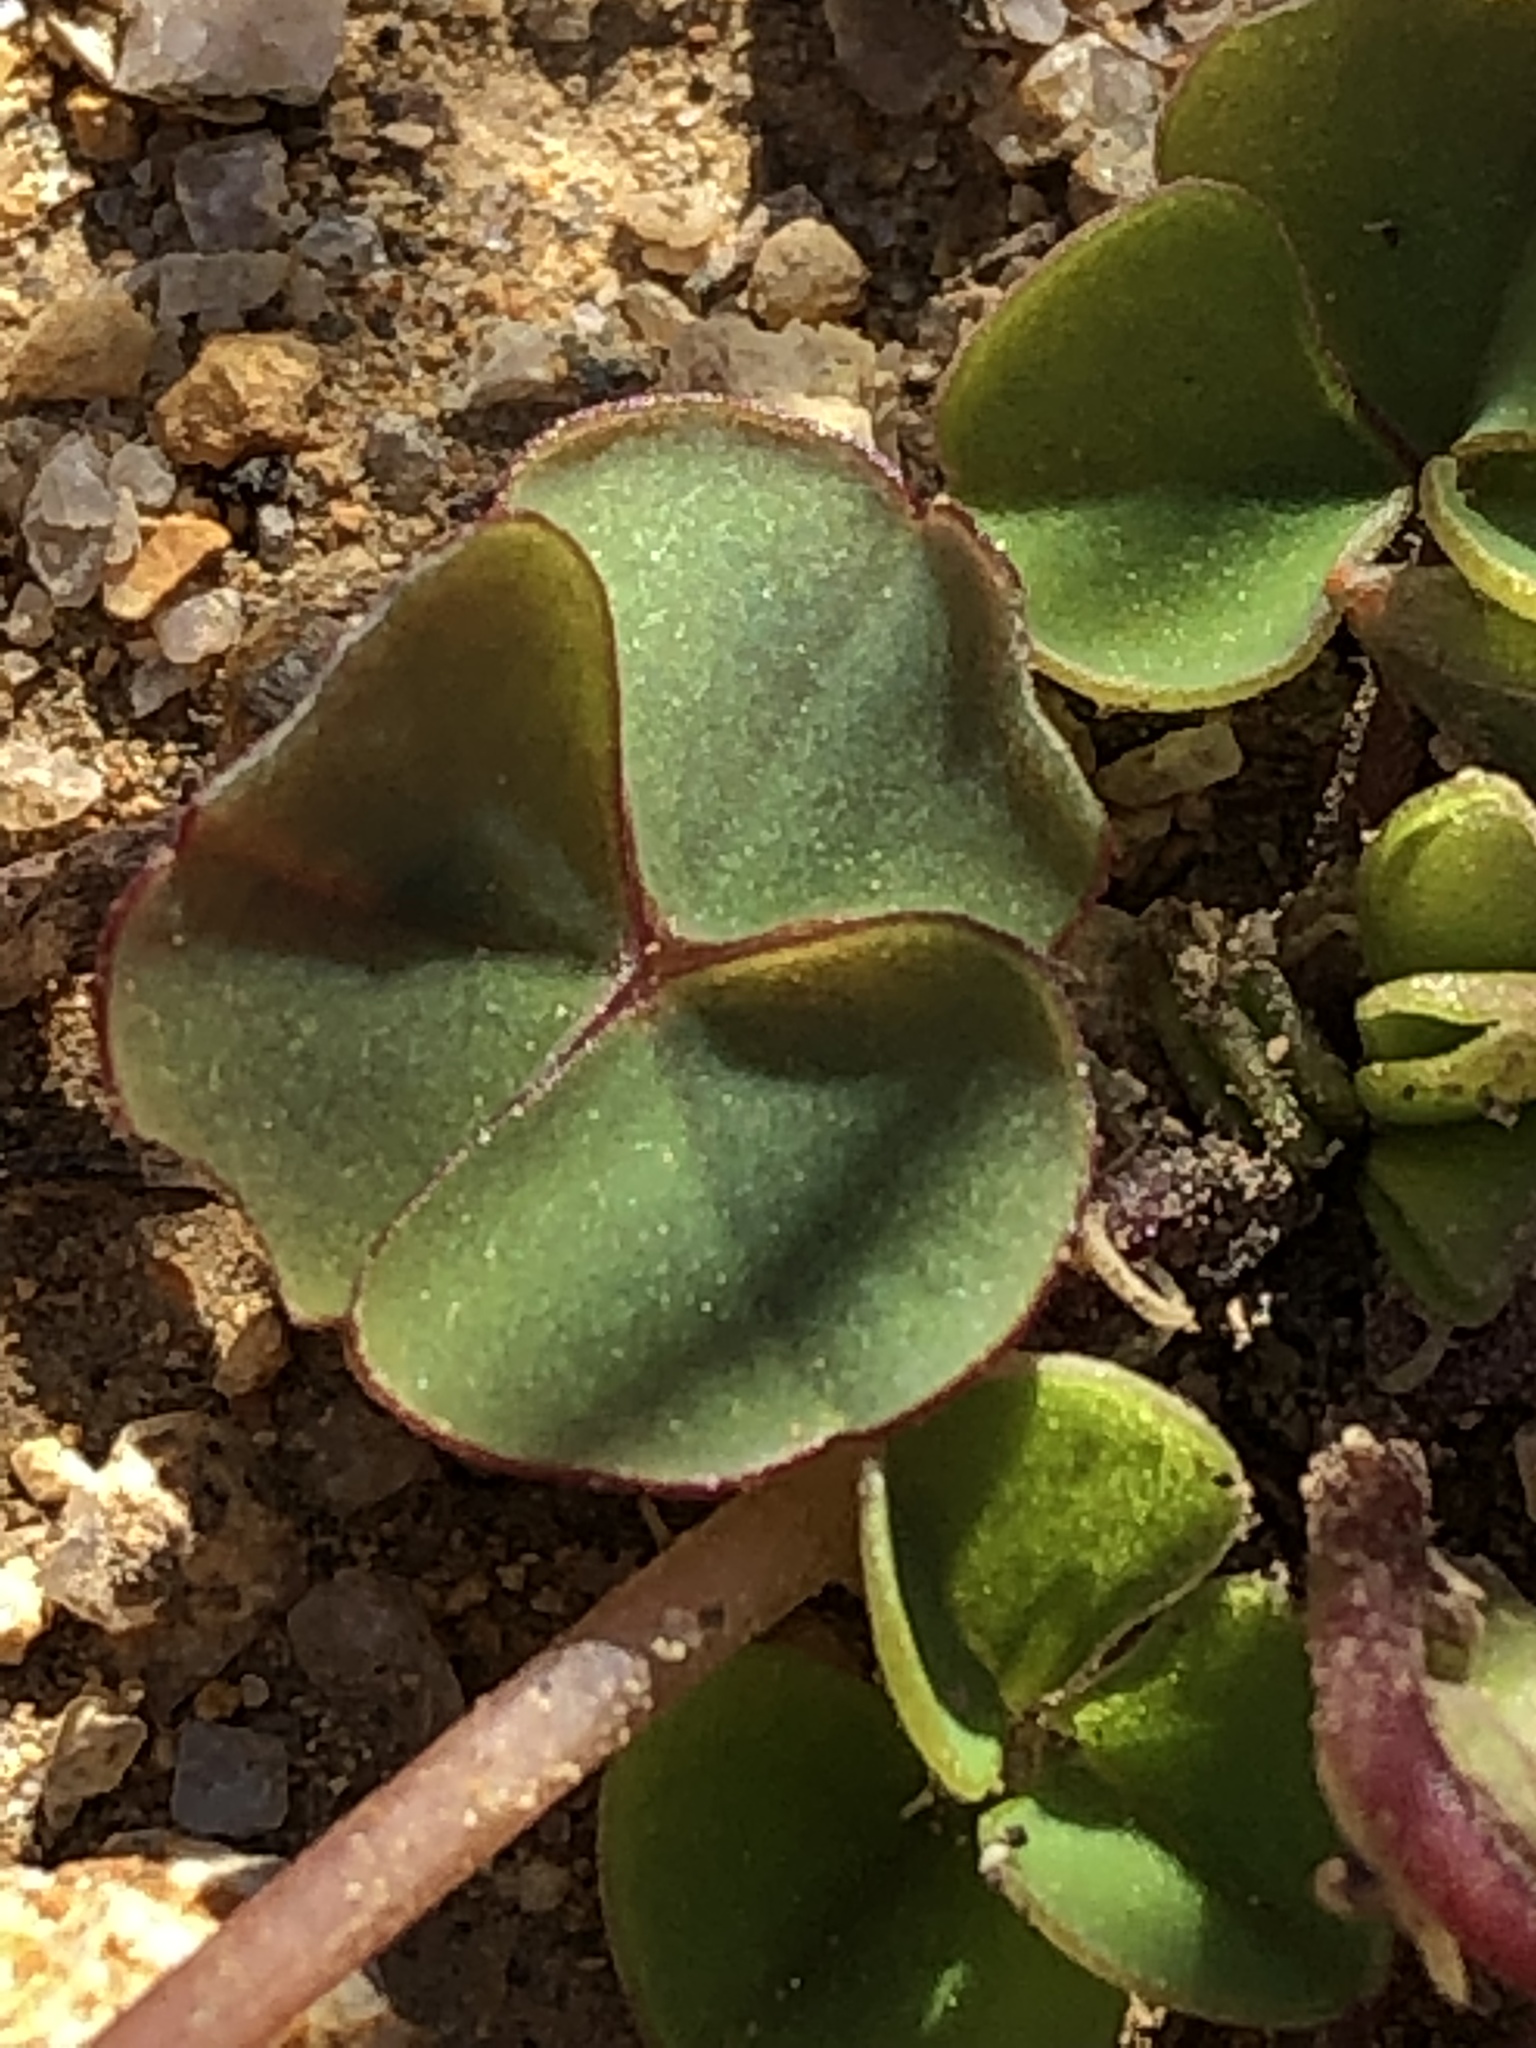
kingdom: Plantae
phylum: Tracheophyta
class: Magnoliopsida
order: Oxalidales
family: Oxalidaceae
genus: Oxalis
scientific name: Oxalis commutata
